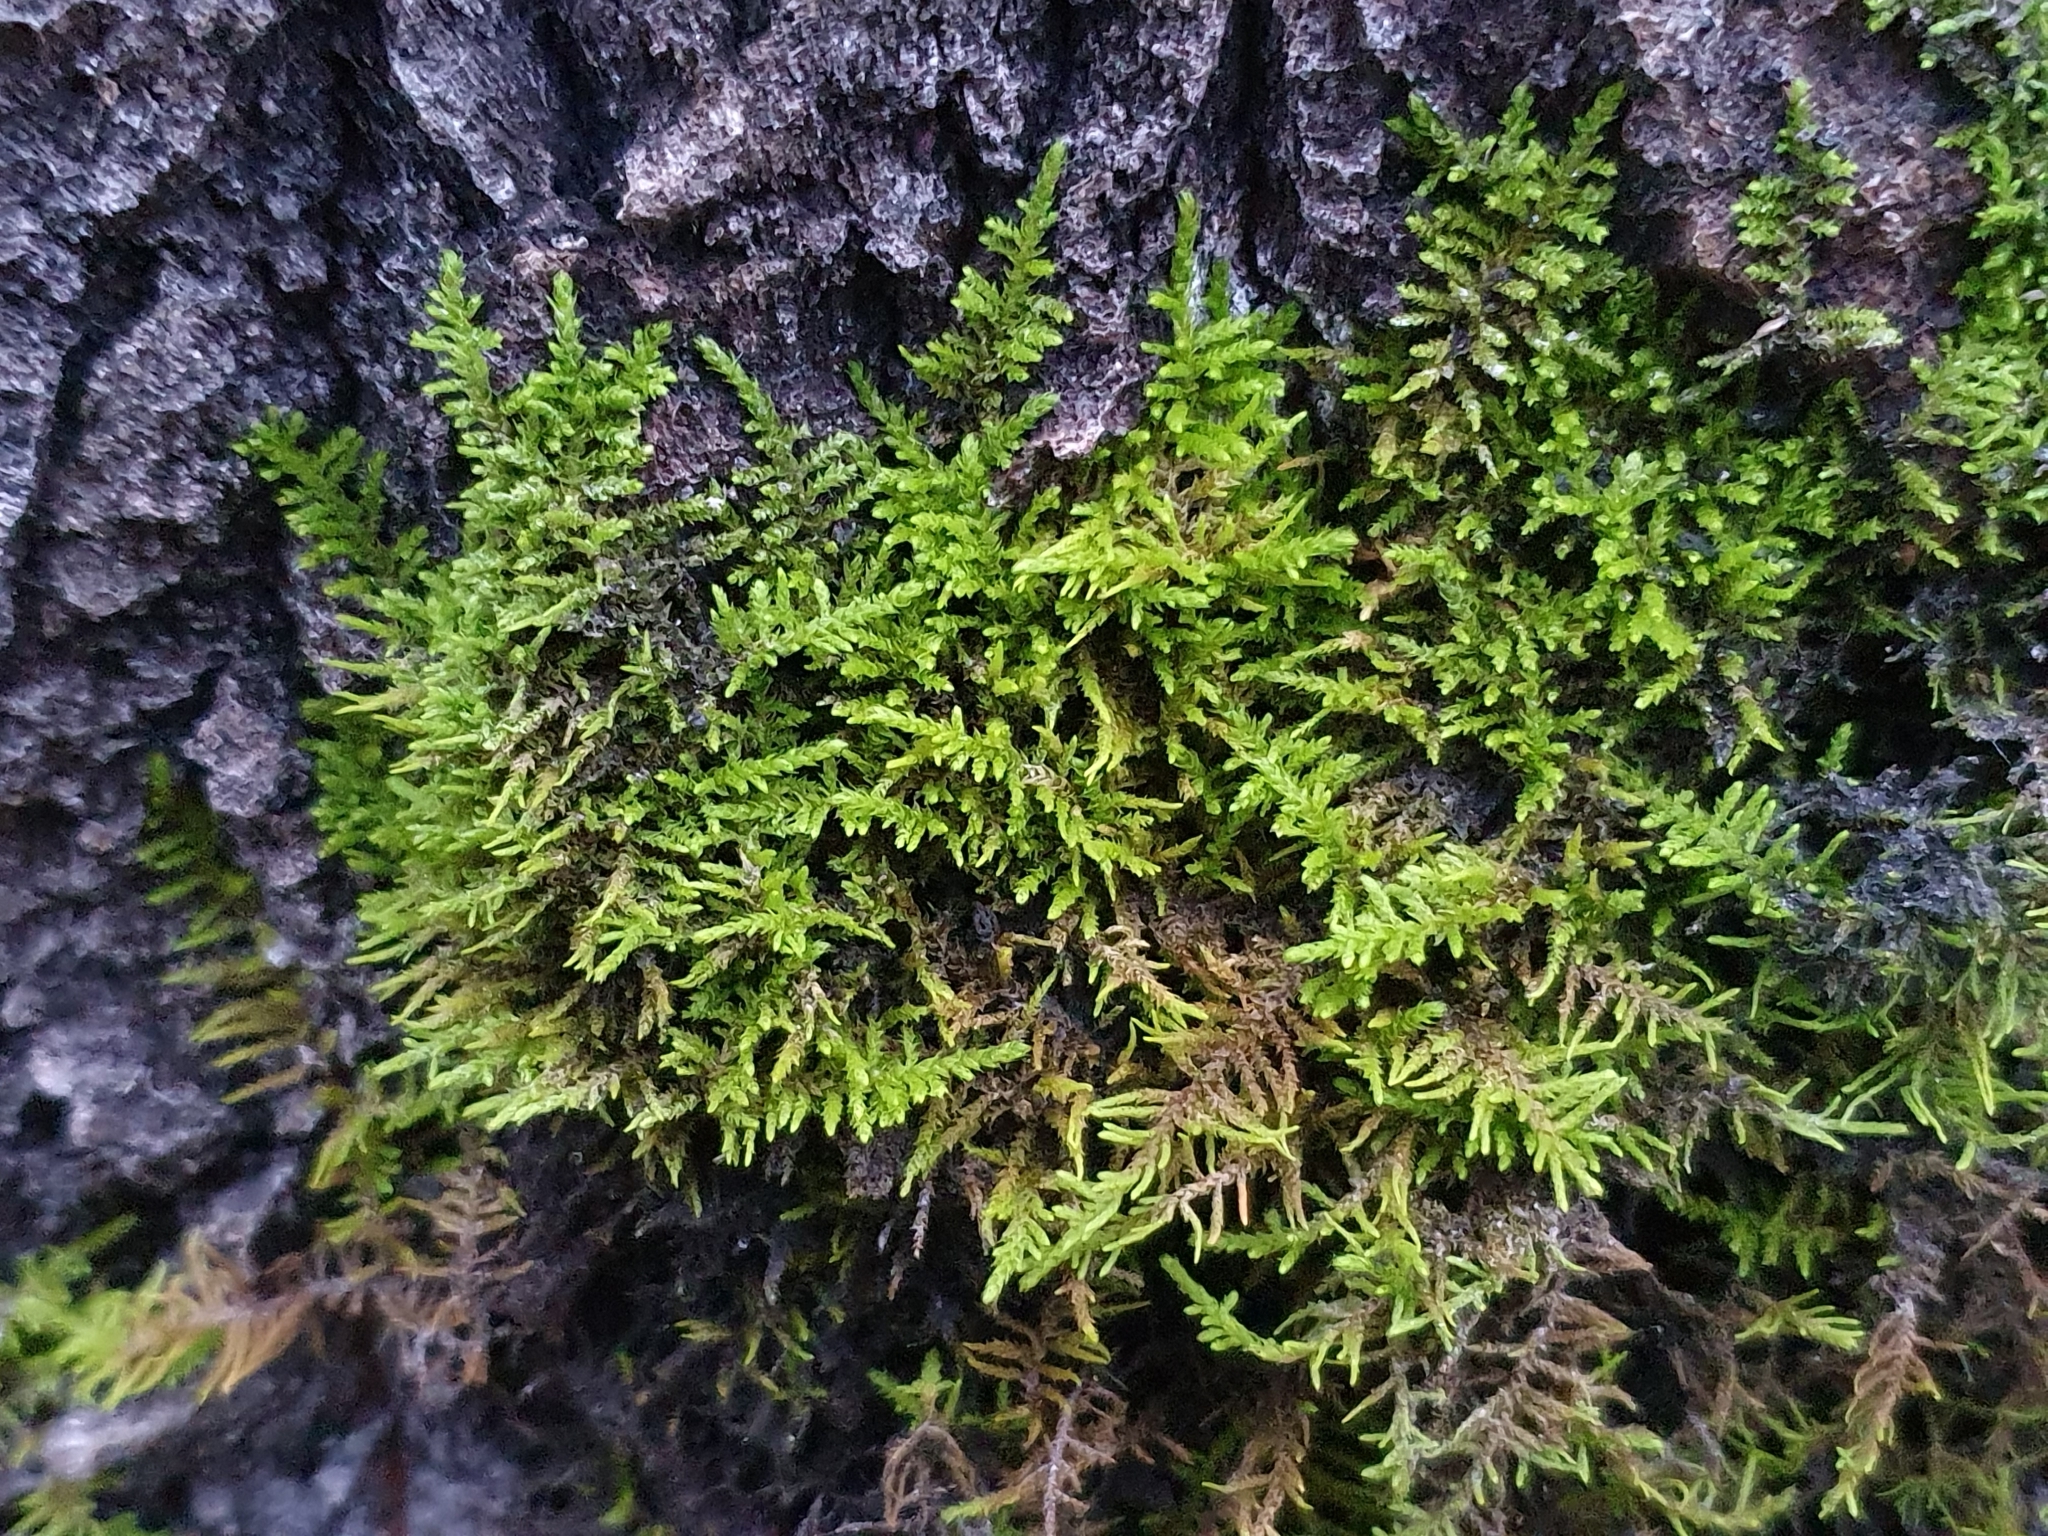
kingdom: Plantae
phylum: Bryophyta
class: Bryopsida
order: Hypnales
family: Thuidiaceae
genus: Abietinella
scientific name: Abietinella abietina
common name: Wiry fern moss
